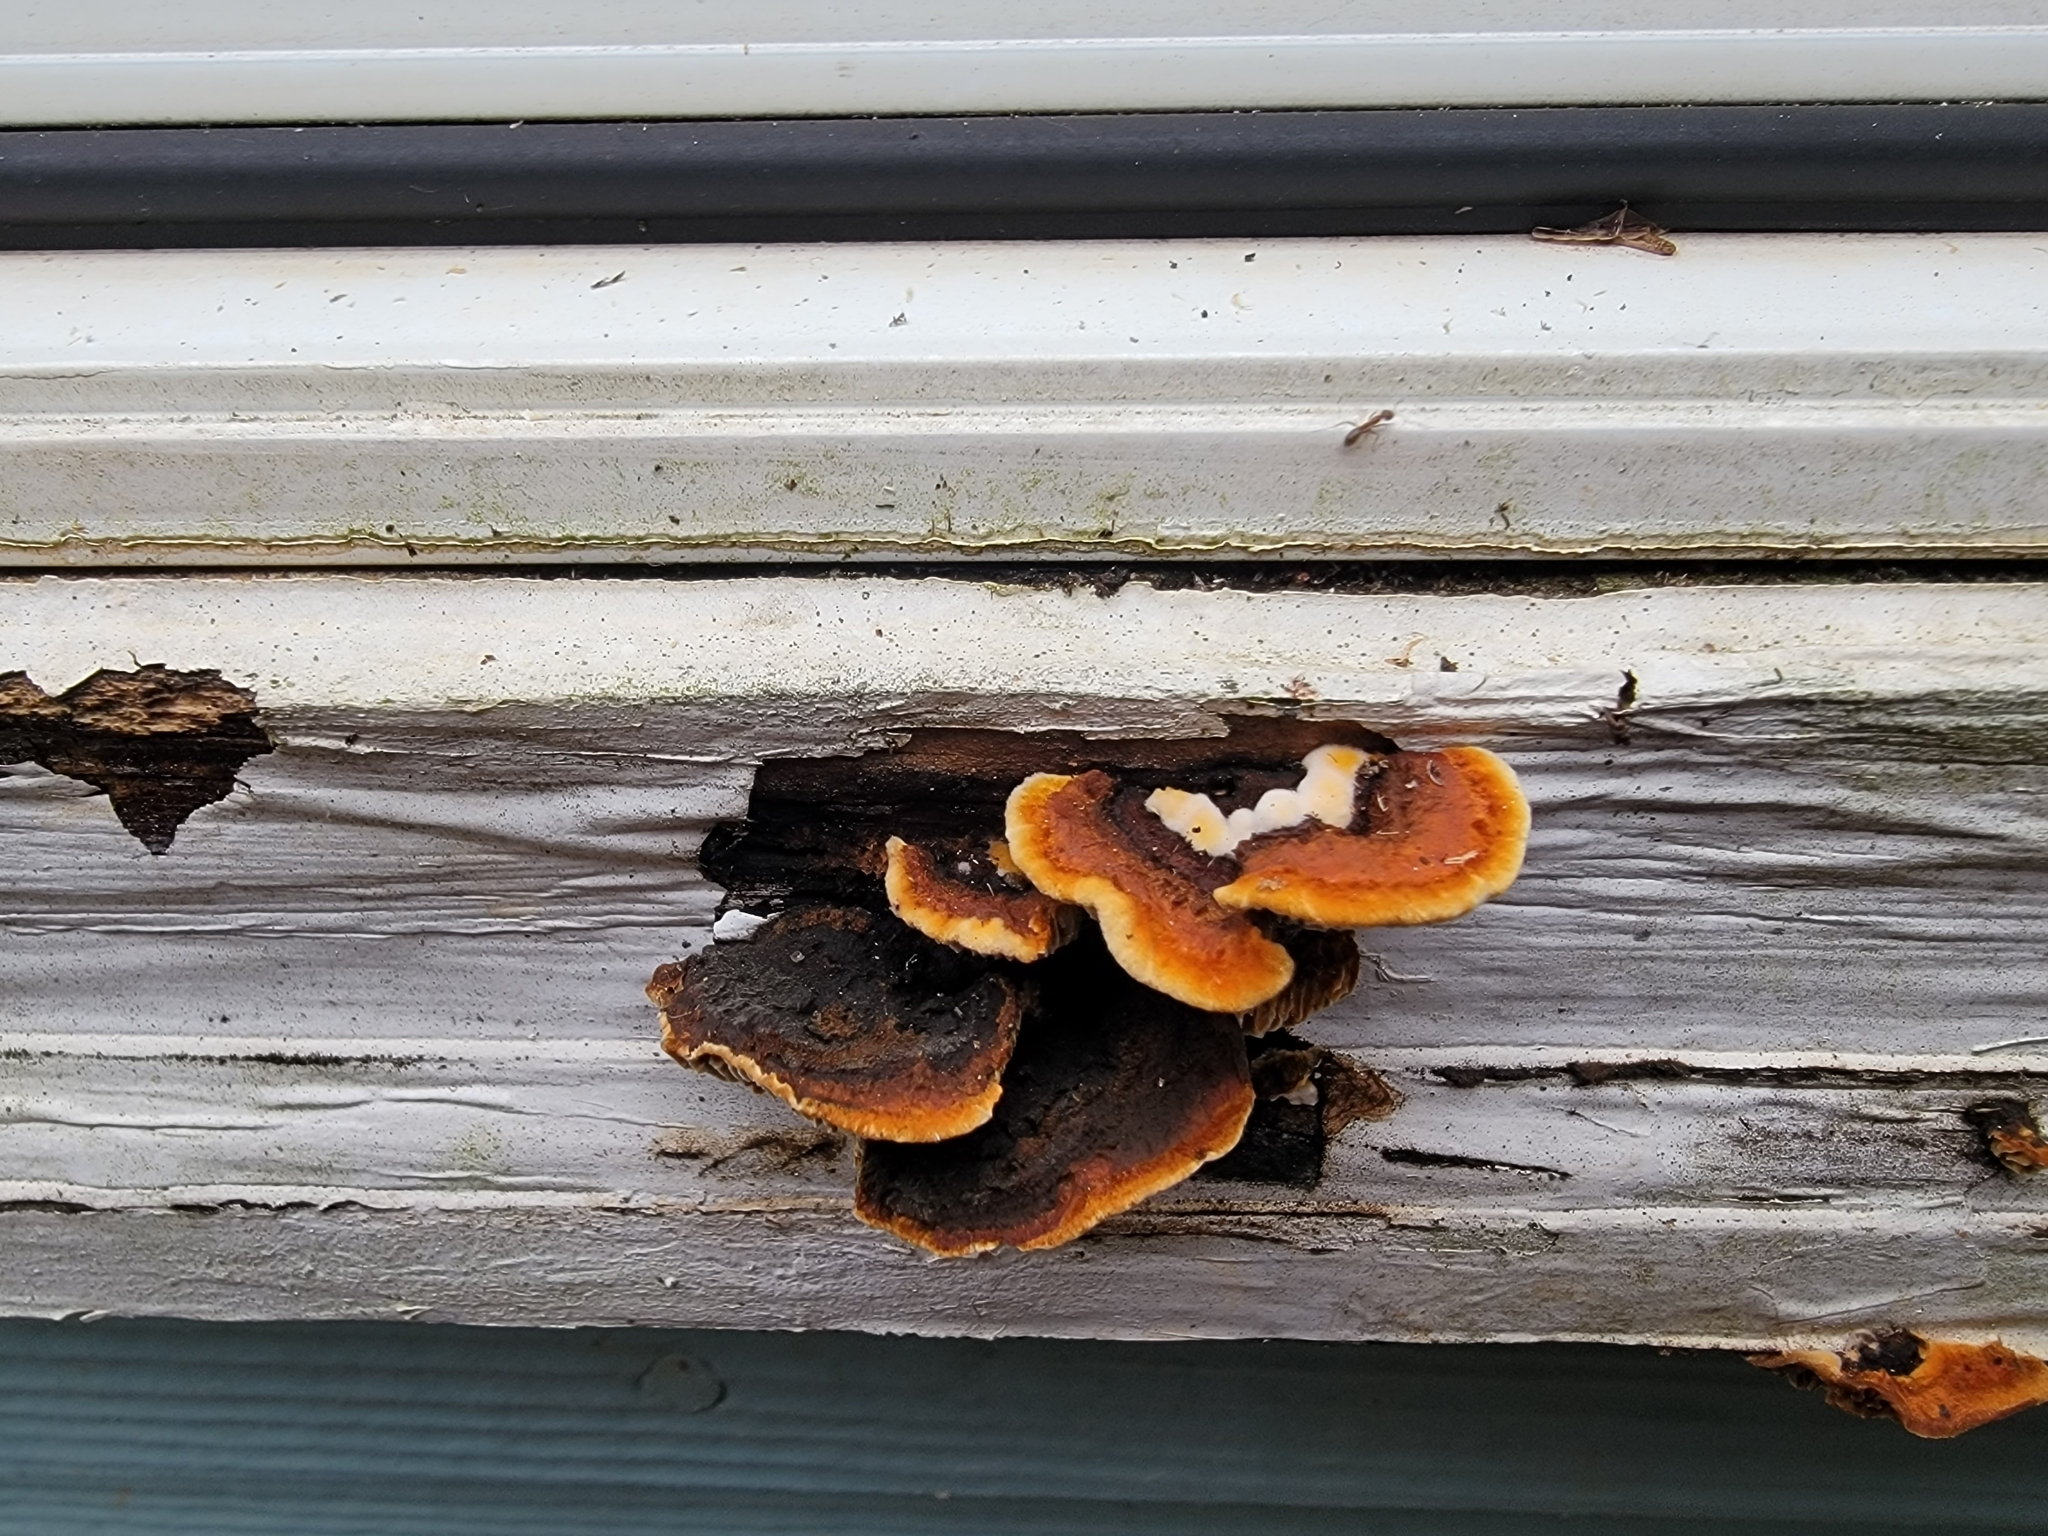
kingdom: Fungi
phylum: Basidiomycota
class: Agaricomycetes
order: Gloeophyllales
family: Gloeophyllaceae
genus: Gloeophyllum
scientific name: Gloeophyllum sepiarium
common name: Conifer mazegill
